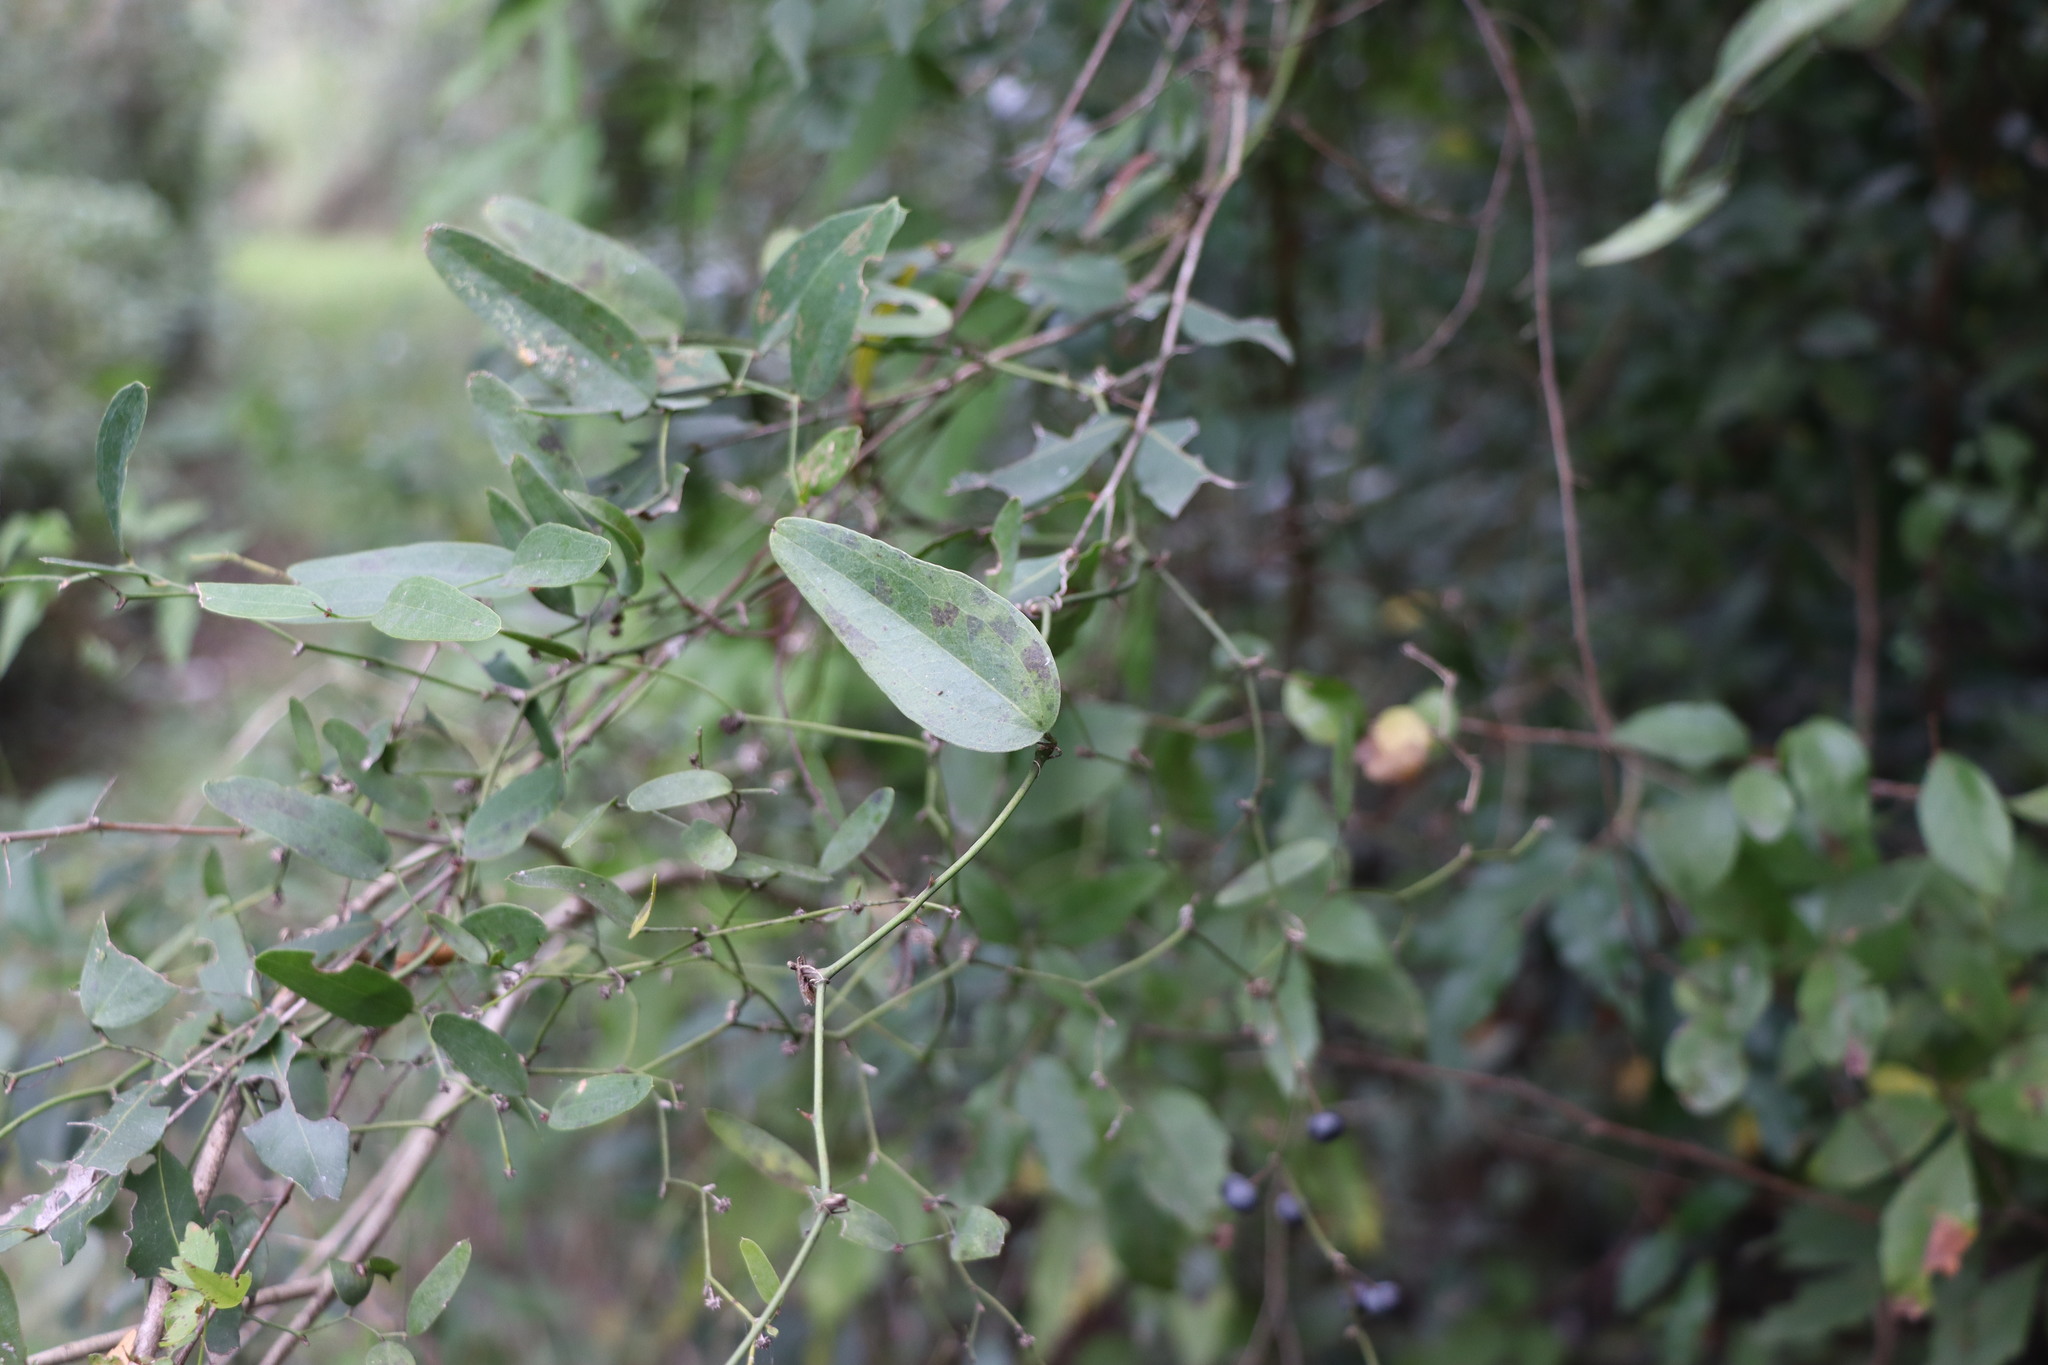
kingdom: Plantae
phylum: Tracheophyta
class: Liliopsida
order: Liliales
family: Smilacaceae
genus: Smilax
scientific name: Smilax campestris
